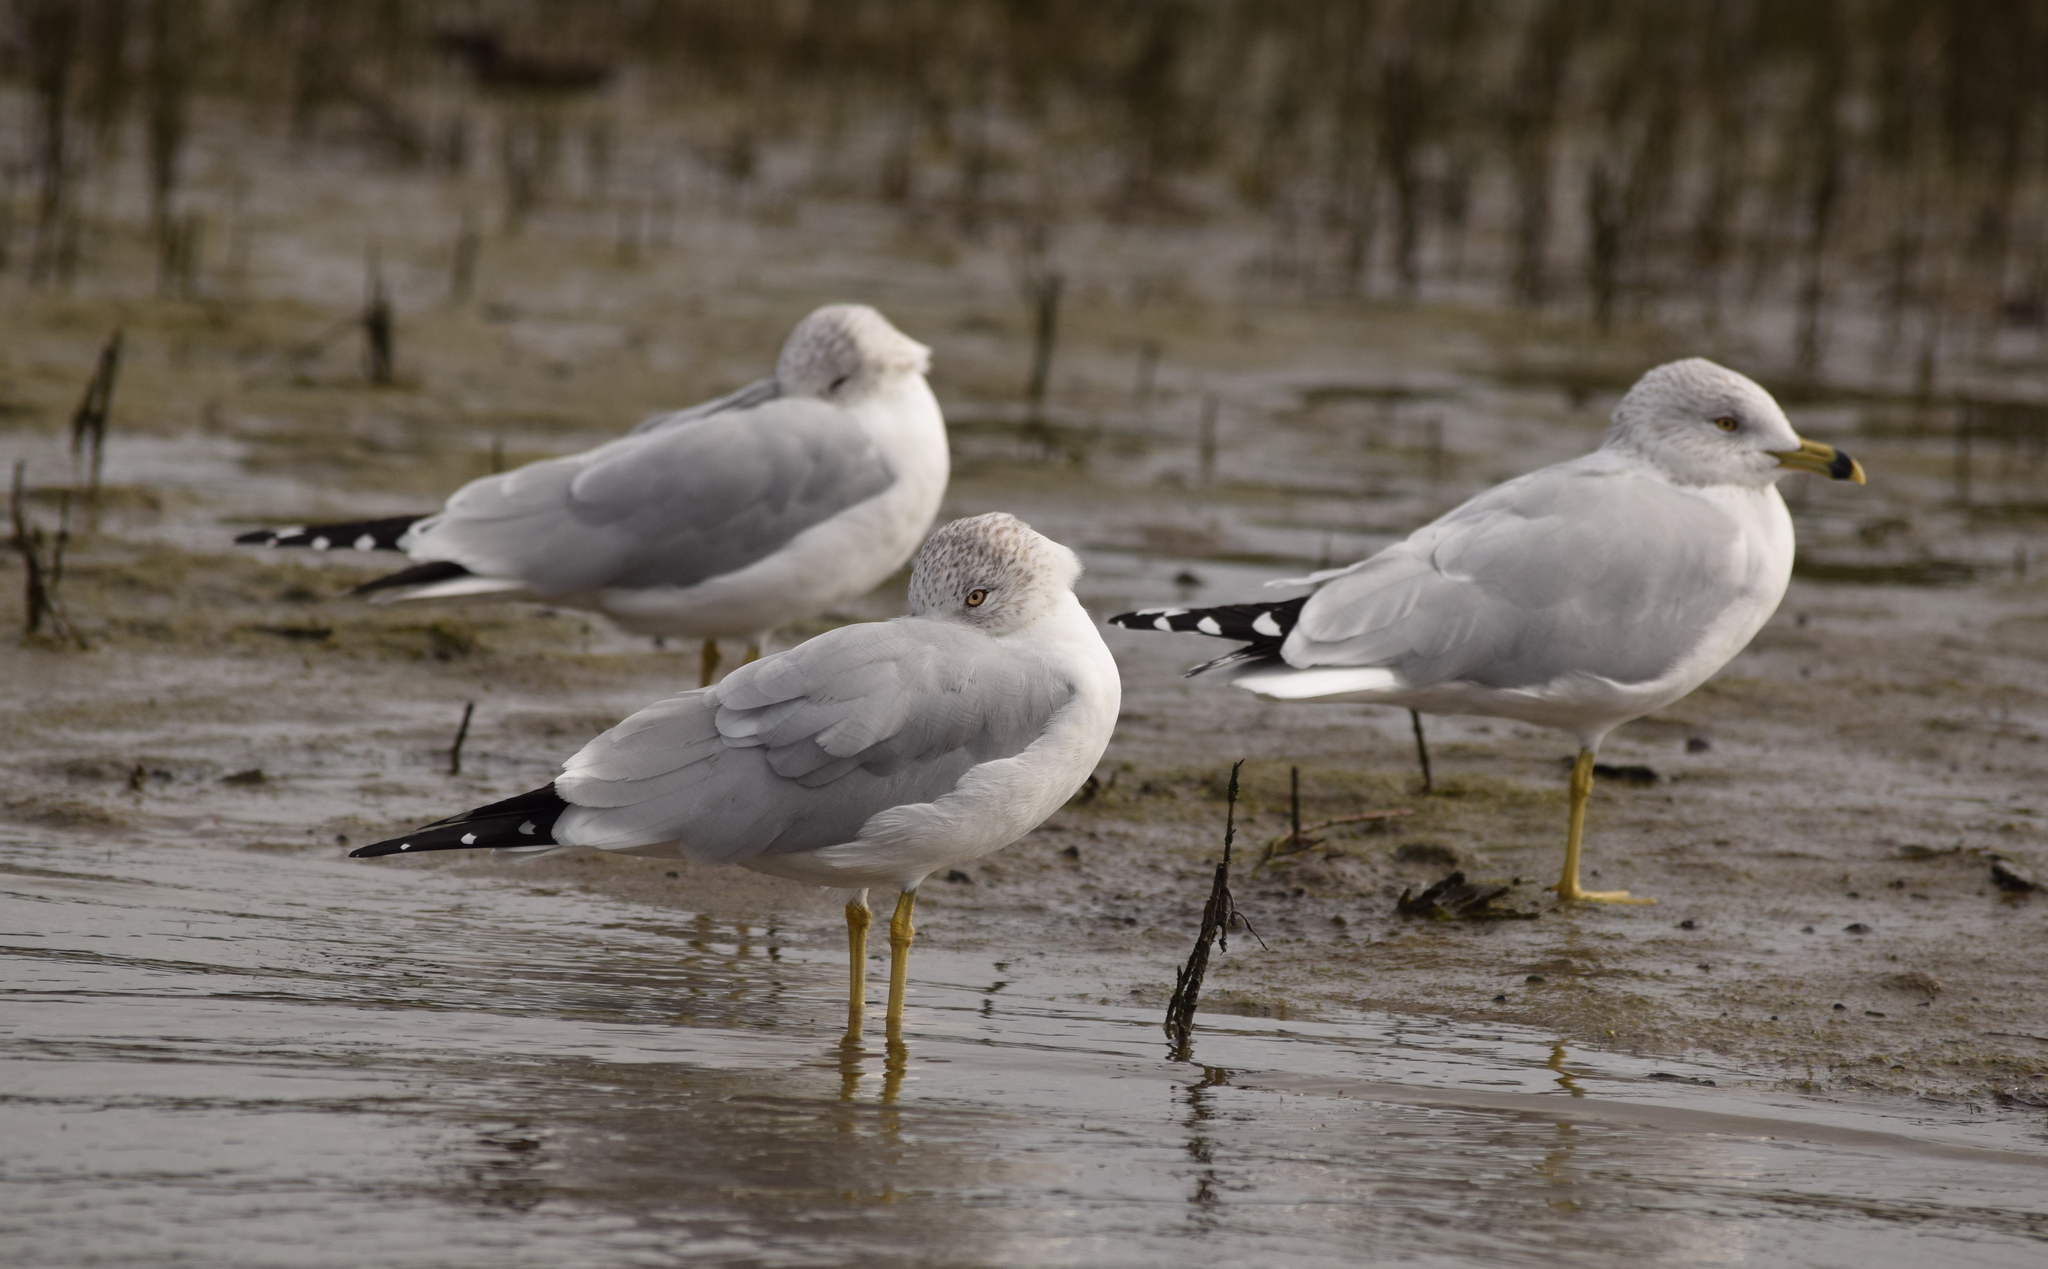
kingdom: Animalia
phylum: Chordata
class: Aves
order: Charadriiformes
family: Laridae
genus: Larus
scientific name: Larus delawarensis
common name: Ring-billed gull
